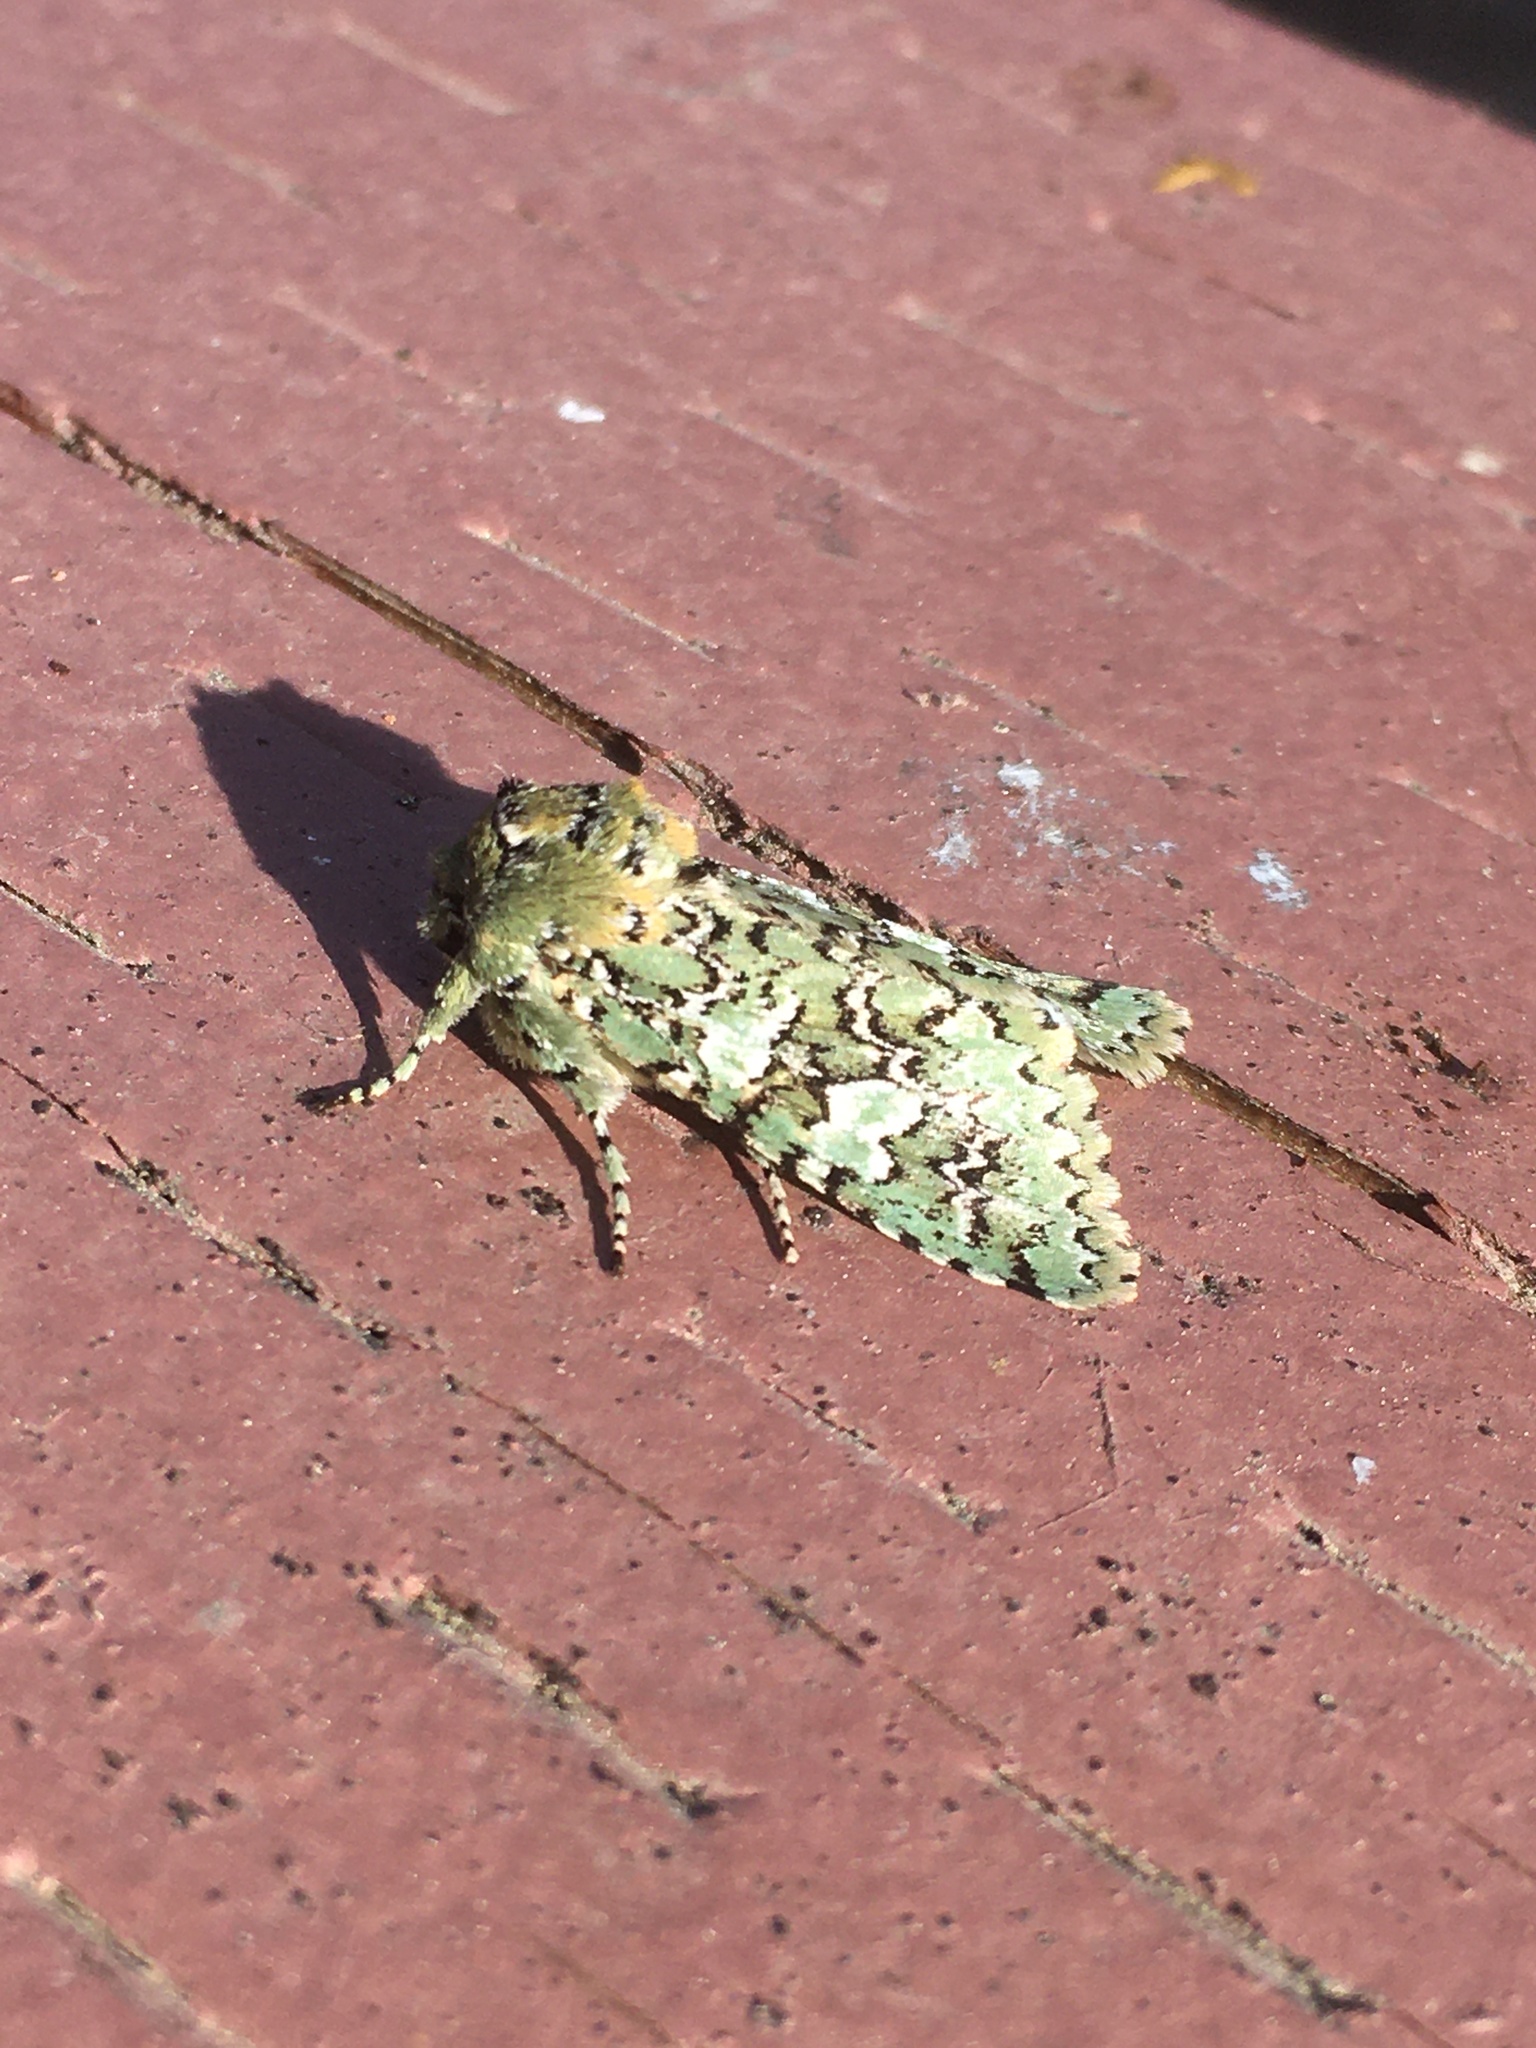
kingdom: Animalia
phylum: Arthropoda
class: Insecta
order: Lepidoptera
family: Noctuidae
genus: Feralia
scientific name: Feralia februalis
